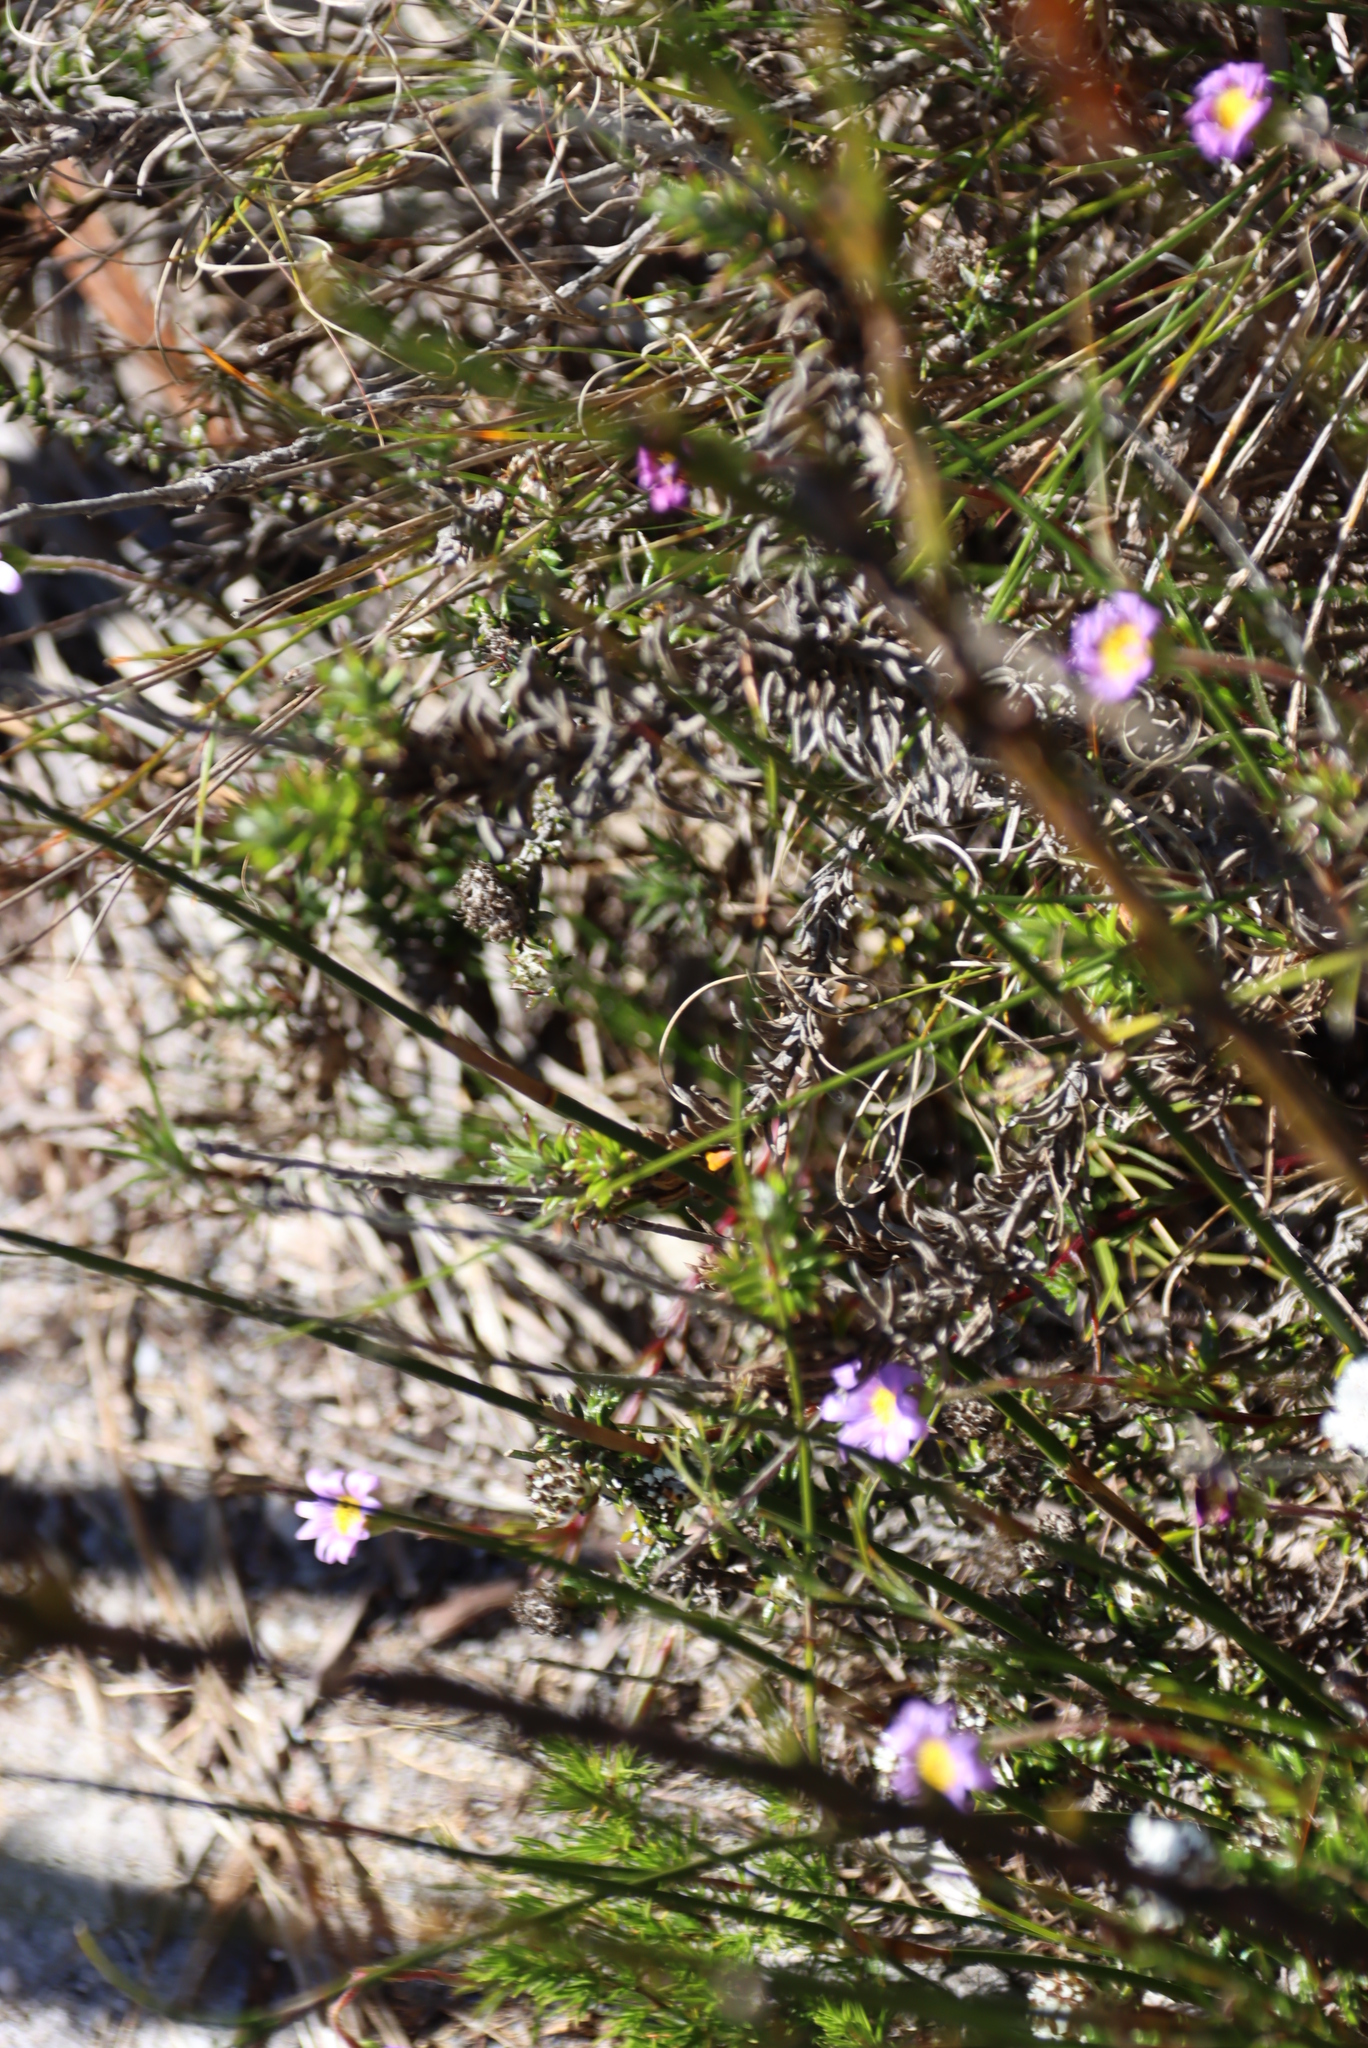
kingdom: Plantae
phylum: Tracheophyta
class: Magnoliopsida
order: Asterales
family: Asteraceae
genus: Zyrphelis
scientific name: Zyrphelis taxifolia
